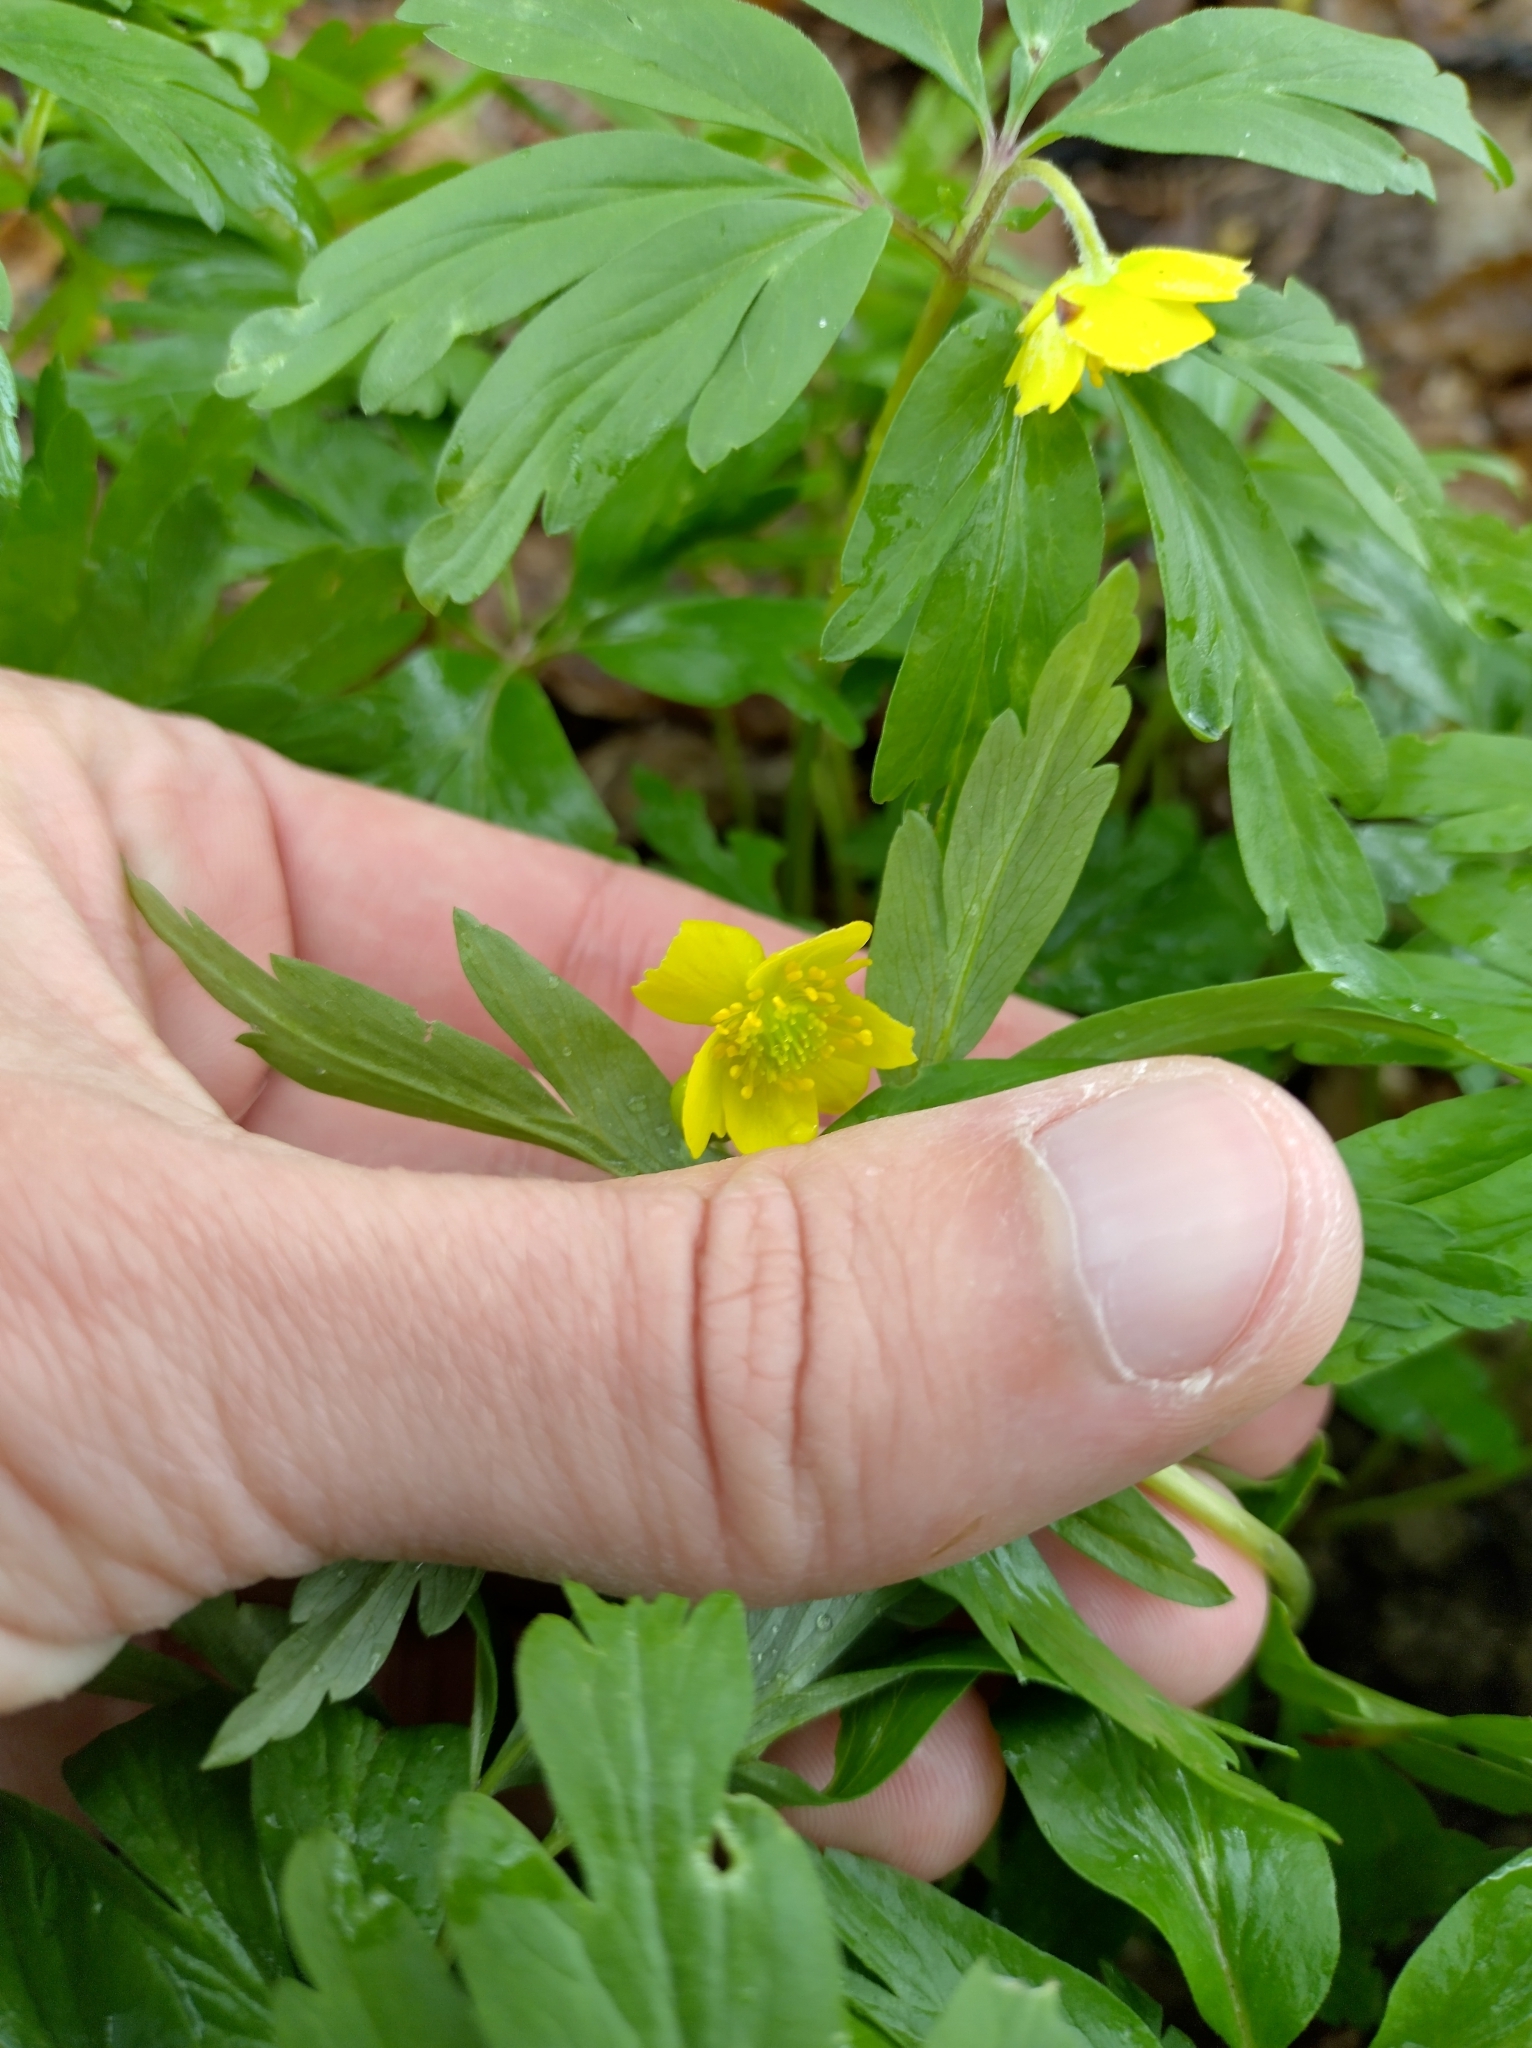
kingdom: Plantae
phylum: Tracheophyta
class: Magnoliopsida
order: Ranunculales
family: Ranunculaceae
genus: Anemone
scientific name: Anemone ranunculoides
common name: Yellow anemone
